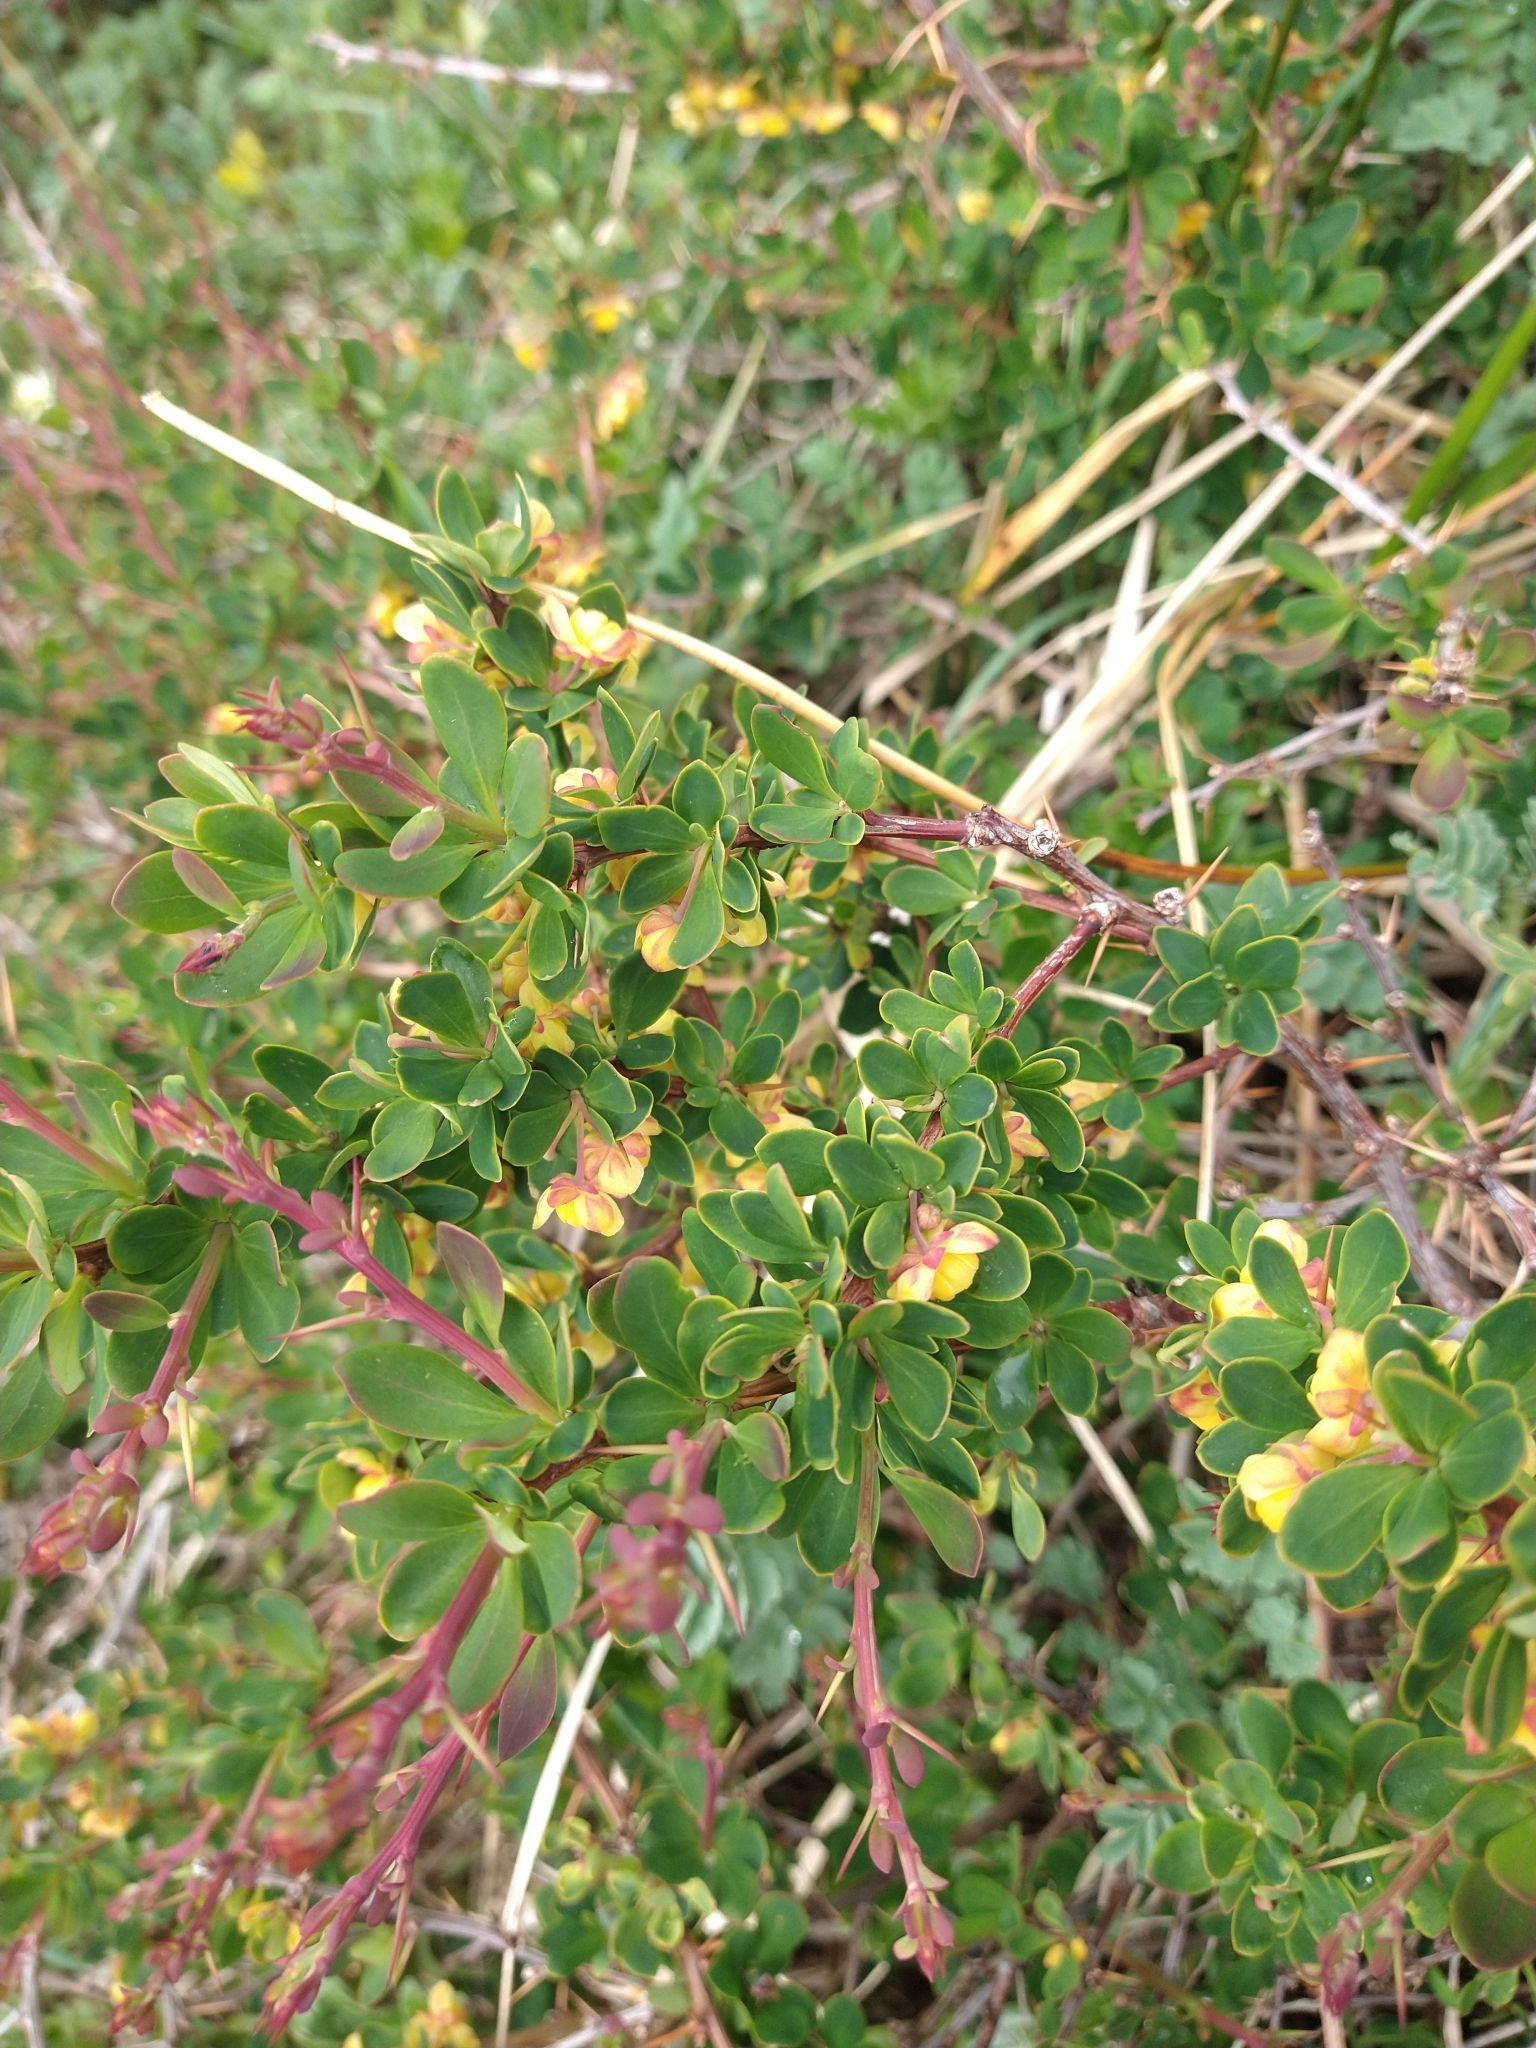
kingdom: Plantae
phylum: Tracheophyta
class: Magnoliopsida
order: Ranunculales
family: Berberidaceae
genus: Berberis
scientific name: Berberis microphylla
